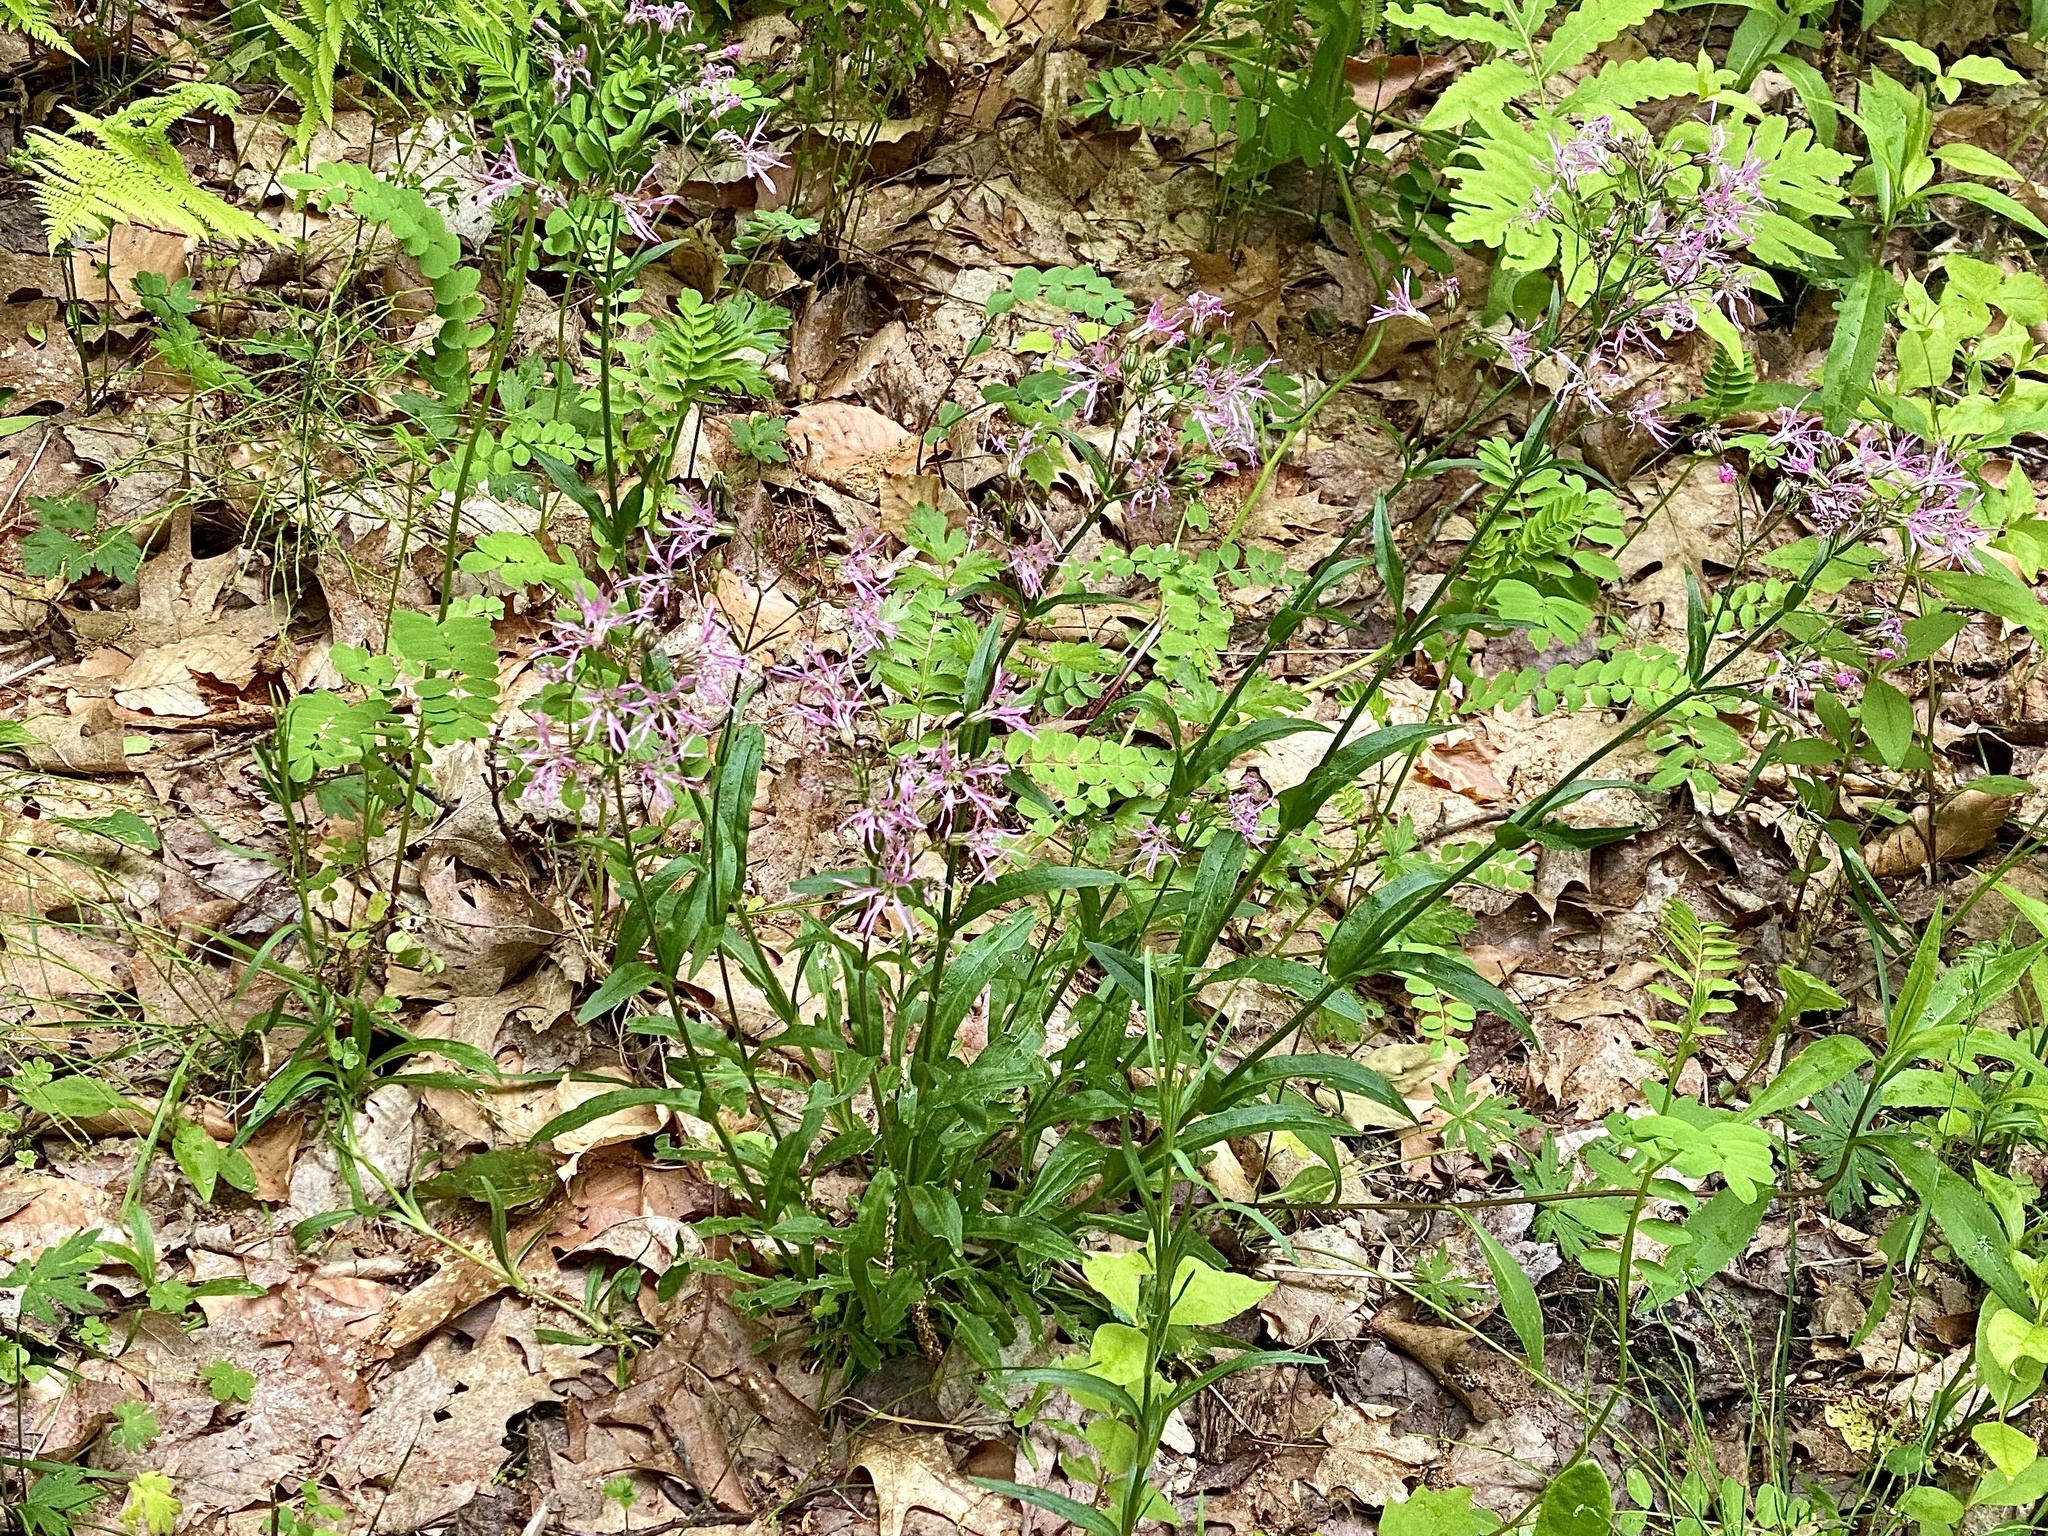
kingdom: Plantae
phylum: Tracheophyta
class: Magnoliopsida
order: Caryophyllales
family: Caryophyllaceae
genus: Silene
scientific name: Silene flos-cuculi
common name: Ragged-robin
